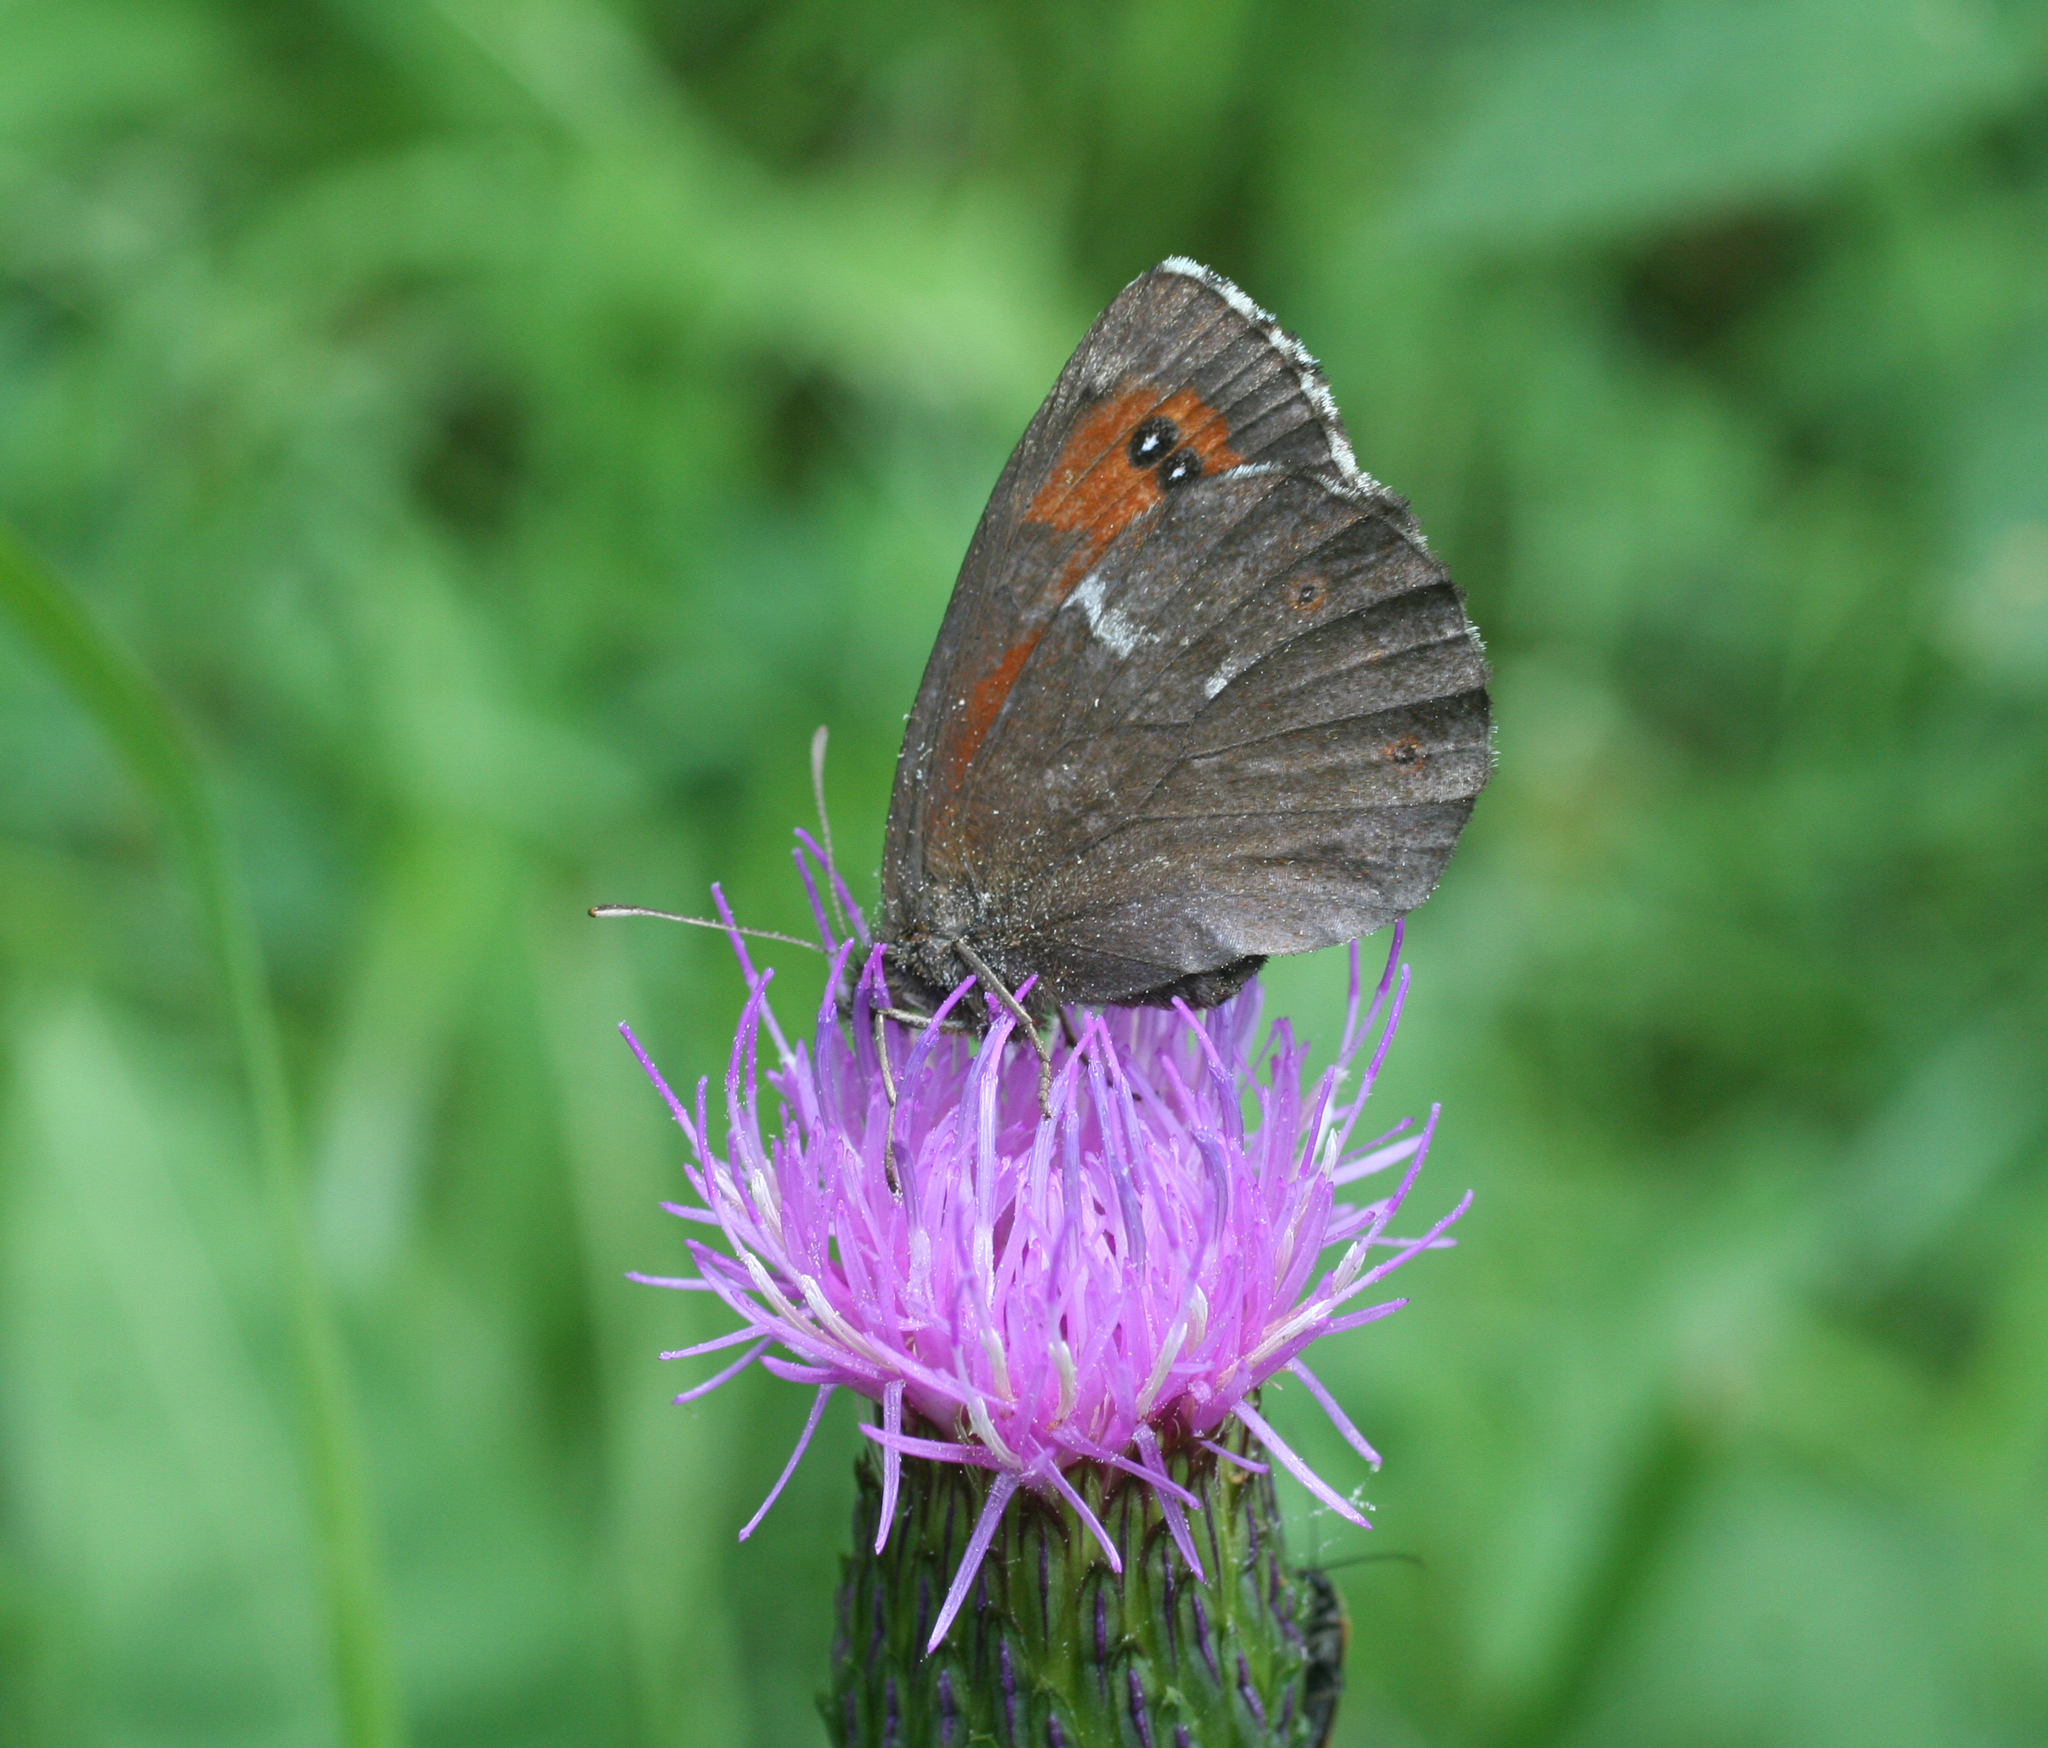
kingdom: Animalia
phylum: Arthropoda
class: Insecta
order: Lepidoptera
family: Nymphalidae
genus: Erebia
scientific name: Erebia ligea
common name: Arran brown
